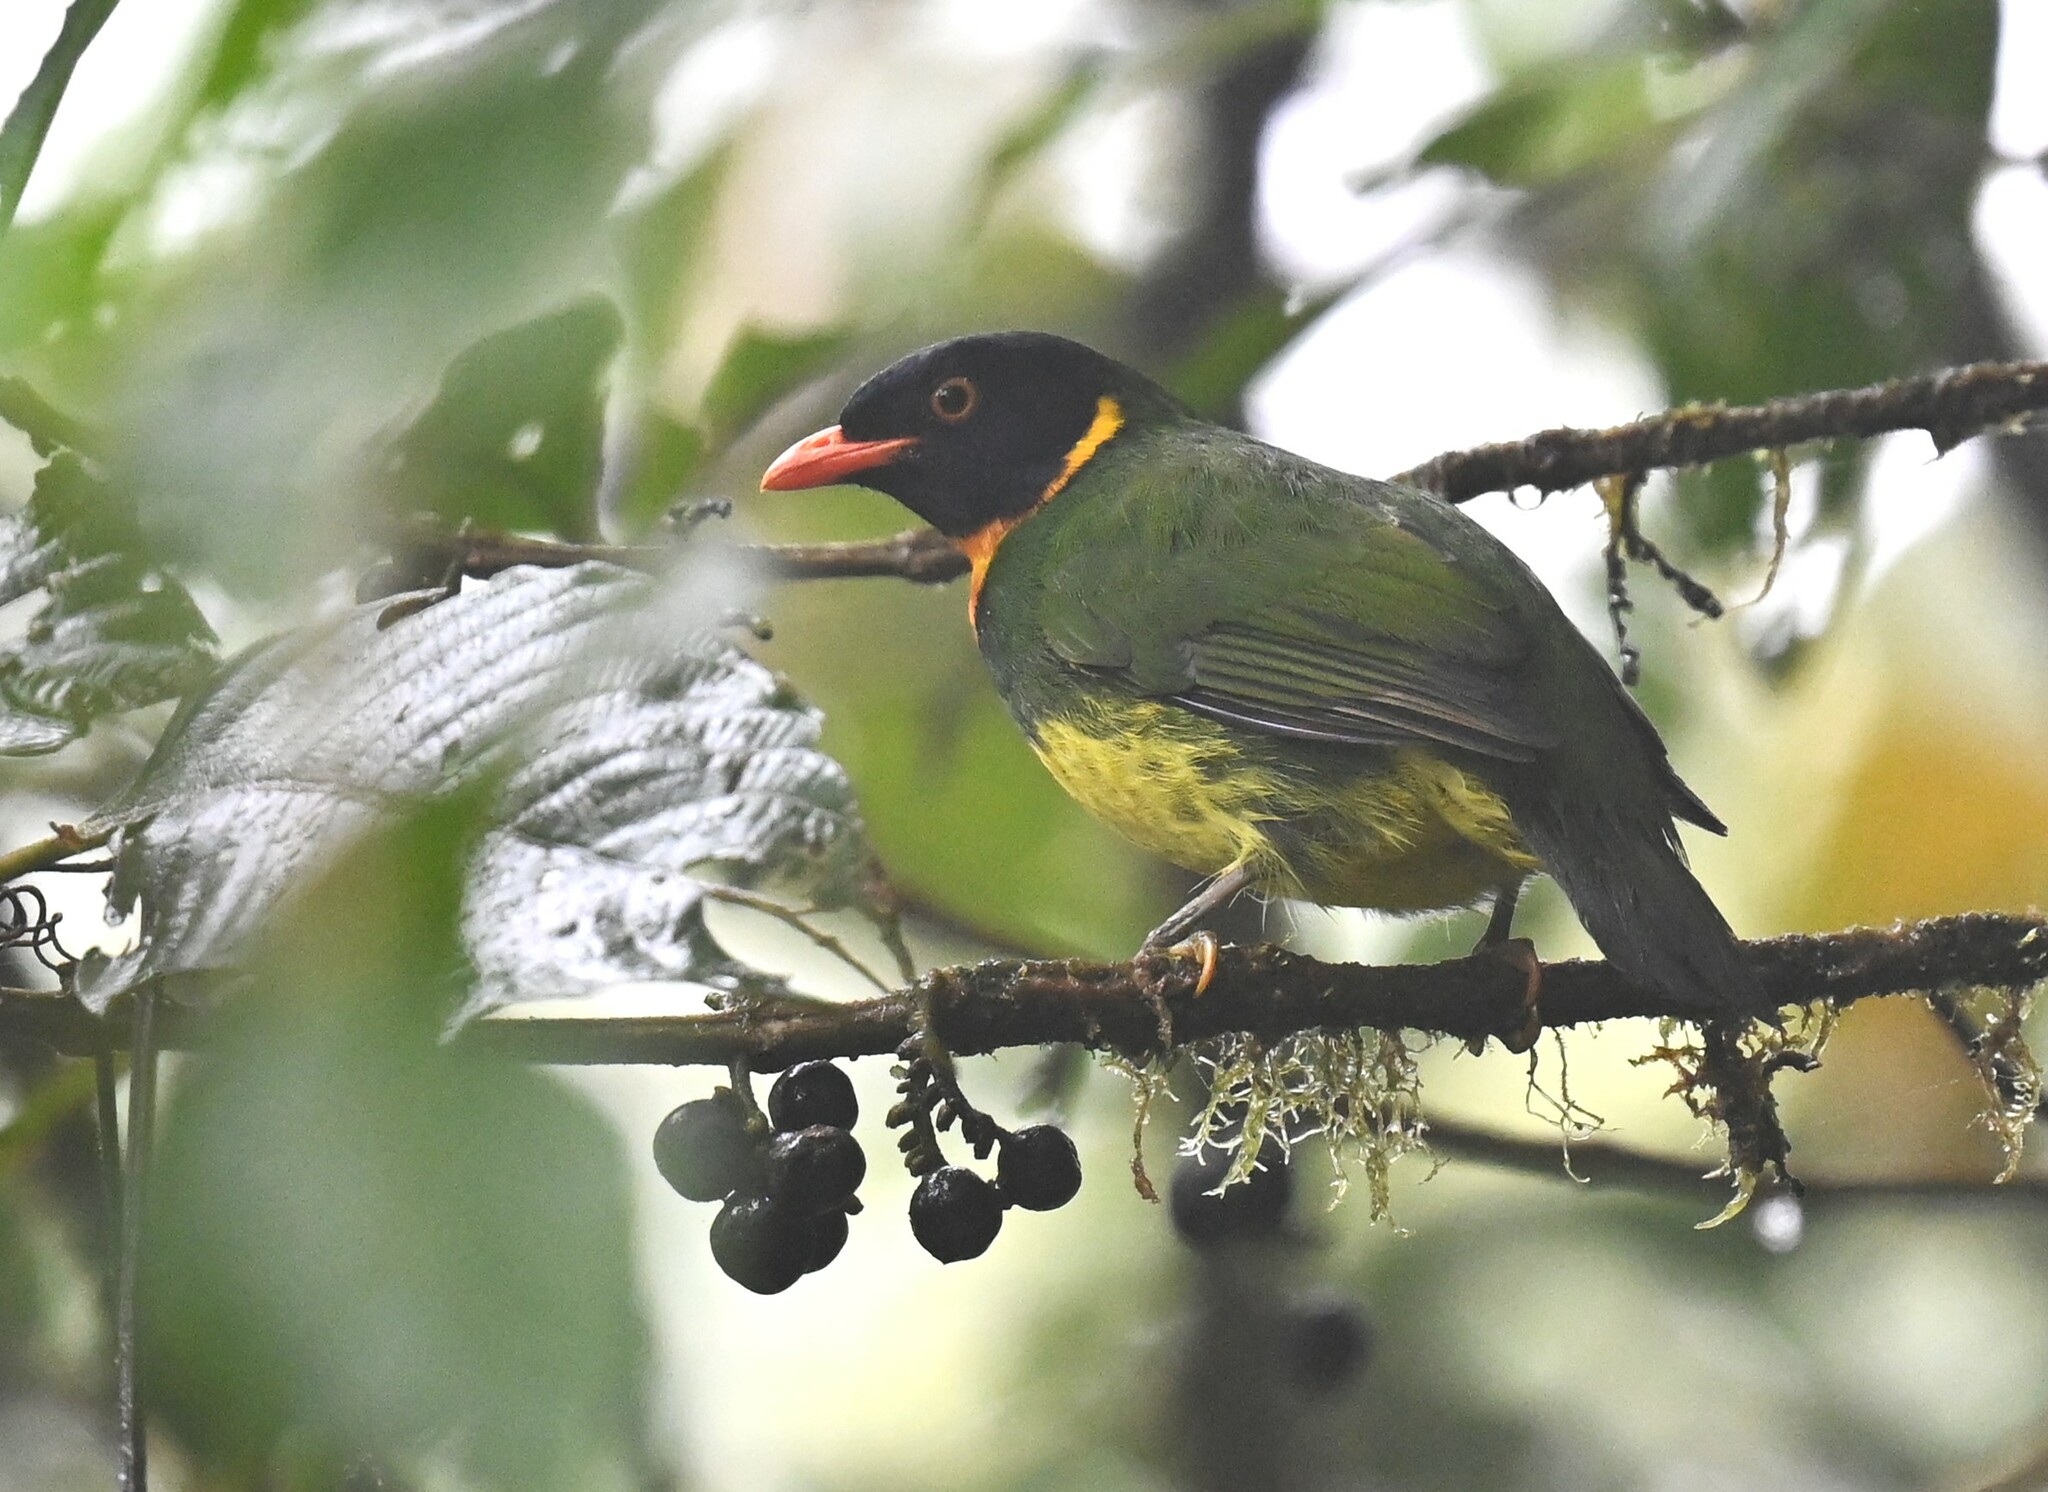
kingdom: Animalia
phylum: Chordata
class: Aves
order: Passeriformes
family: Cotingidae
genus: Pipreola
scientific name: Pipreola jucunda
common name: Orange-breasted fruiteater
